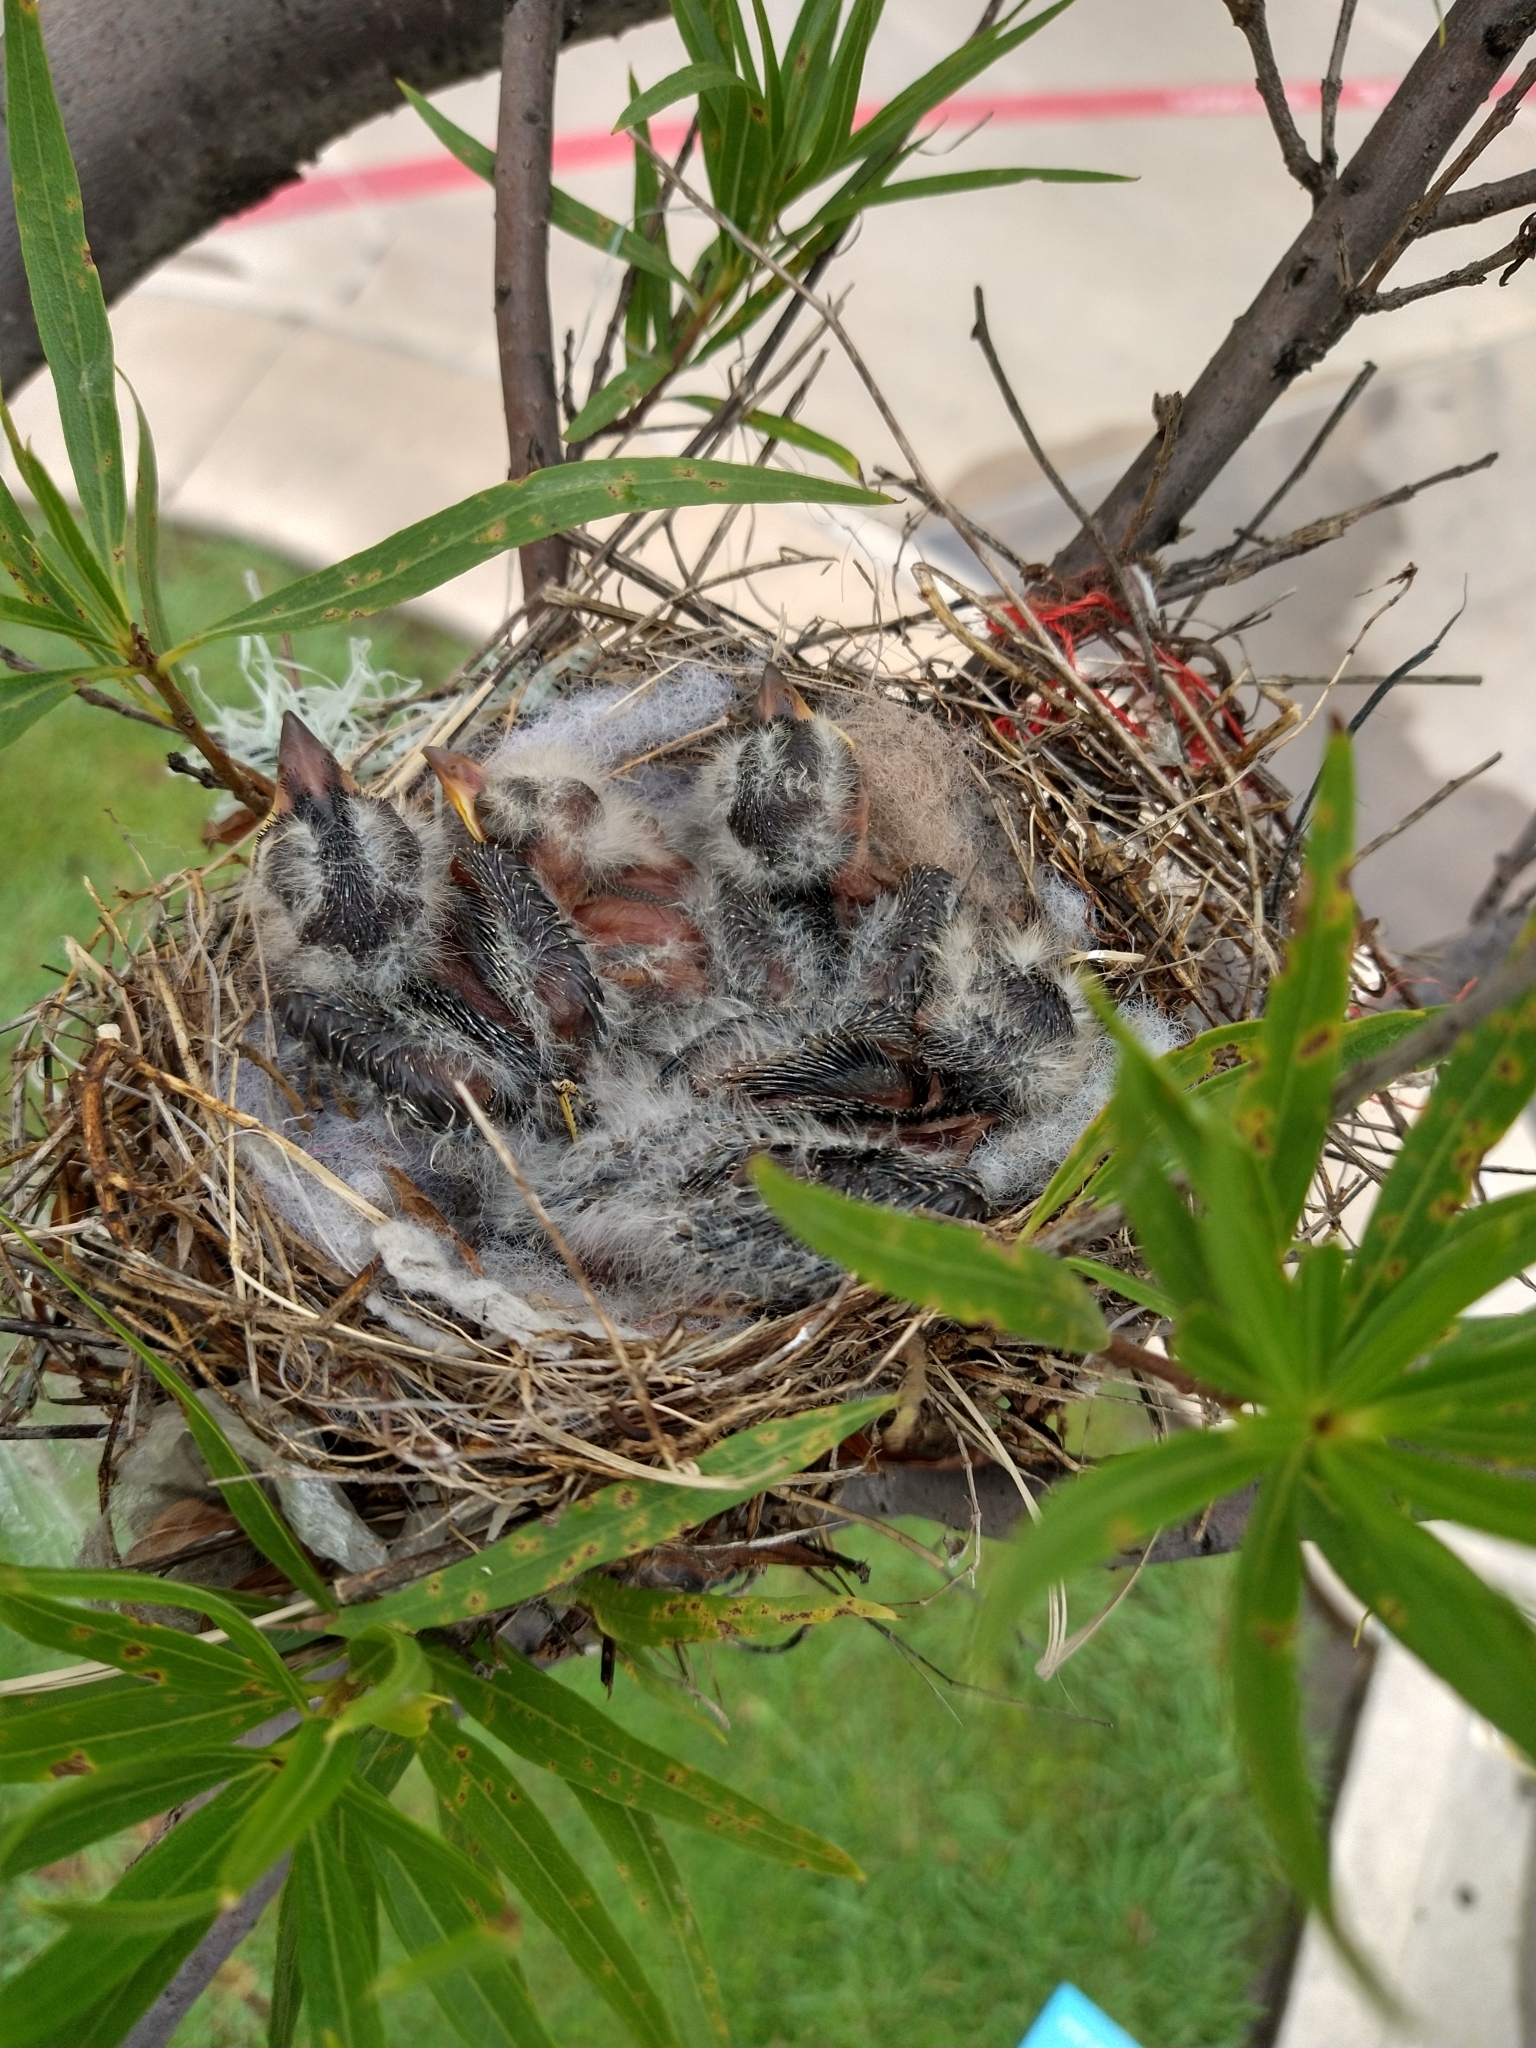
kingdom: Animalia
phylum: Chordata
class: Aves
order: Passeriformes
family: Tyrannidae
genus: Tyrannus
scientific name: Tyrannus verticalis
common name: Western kingbird
